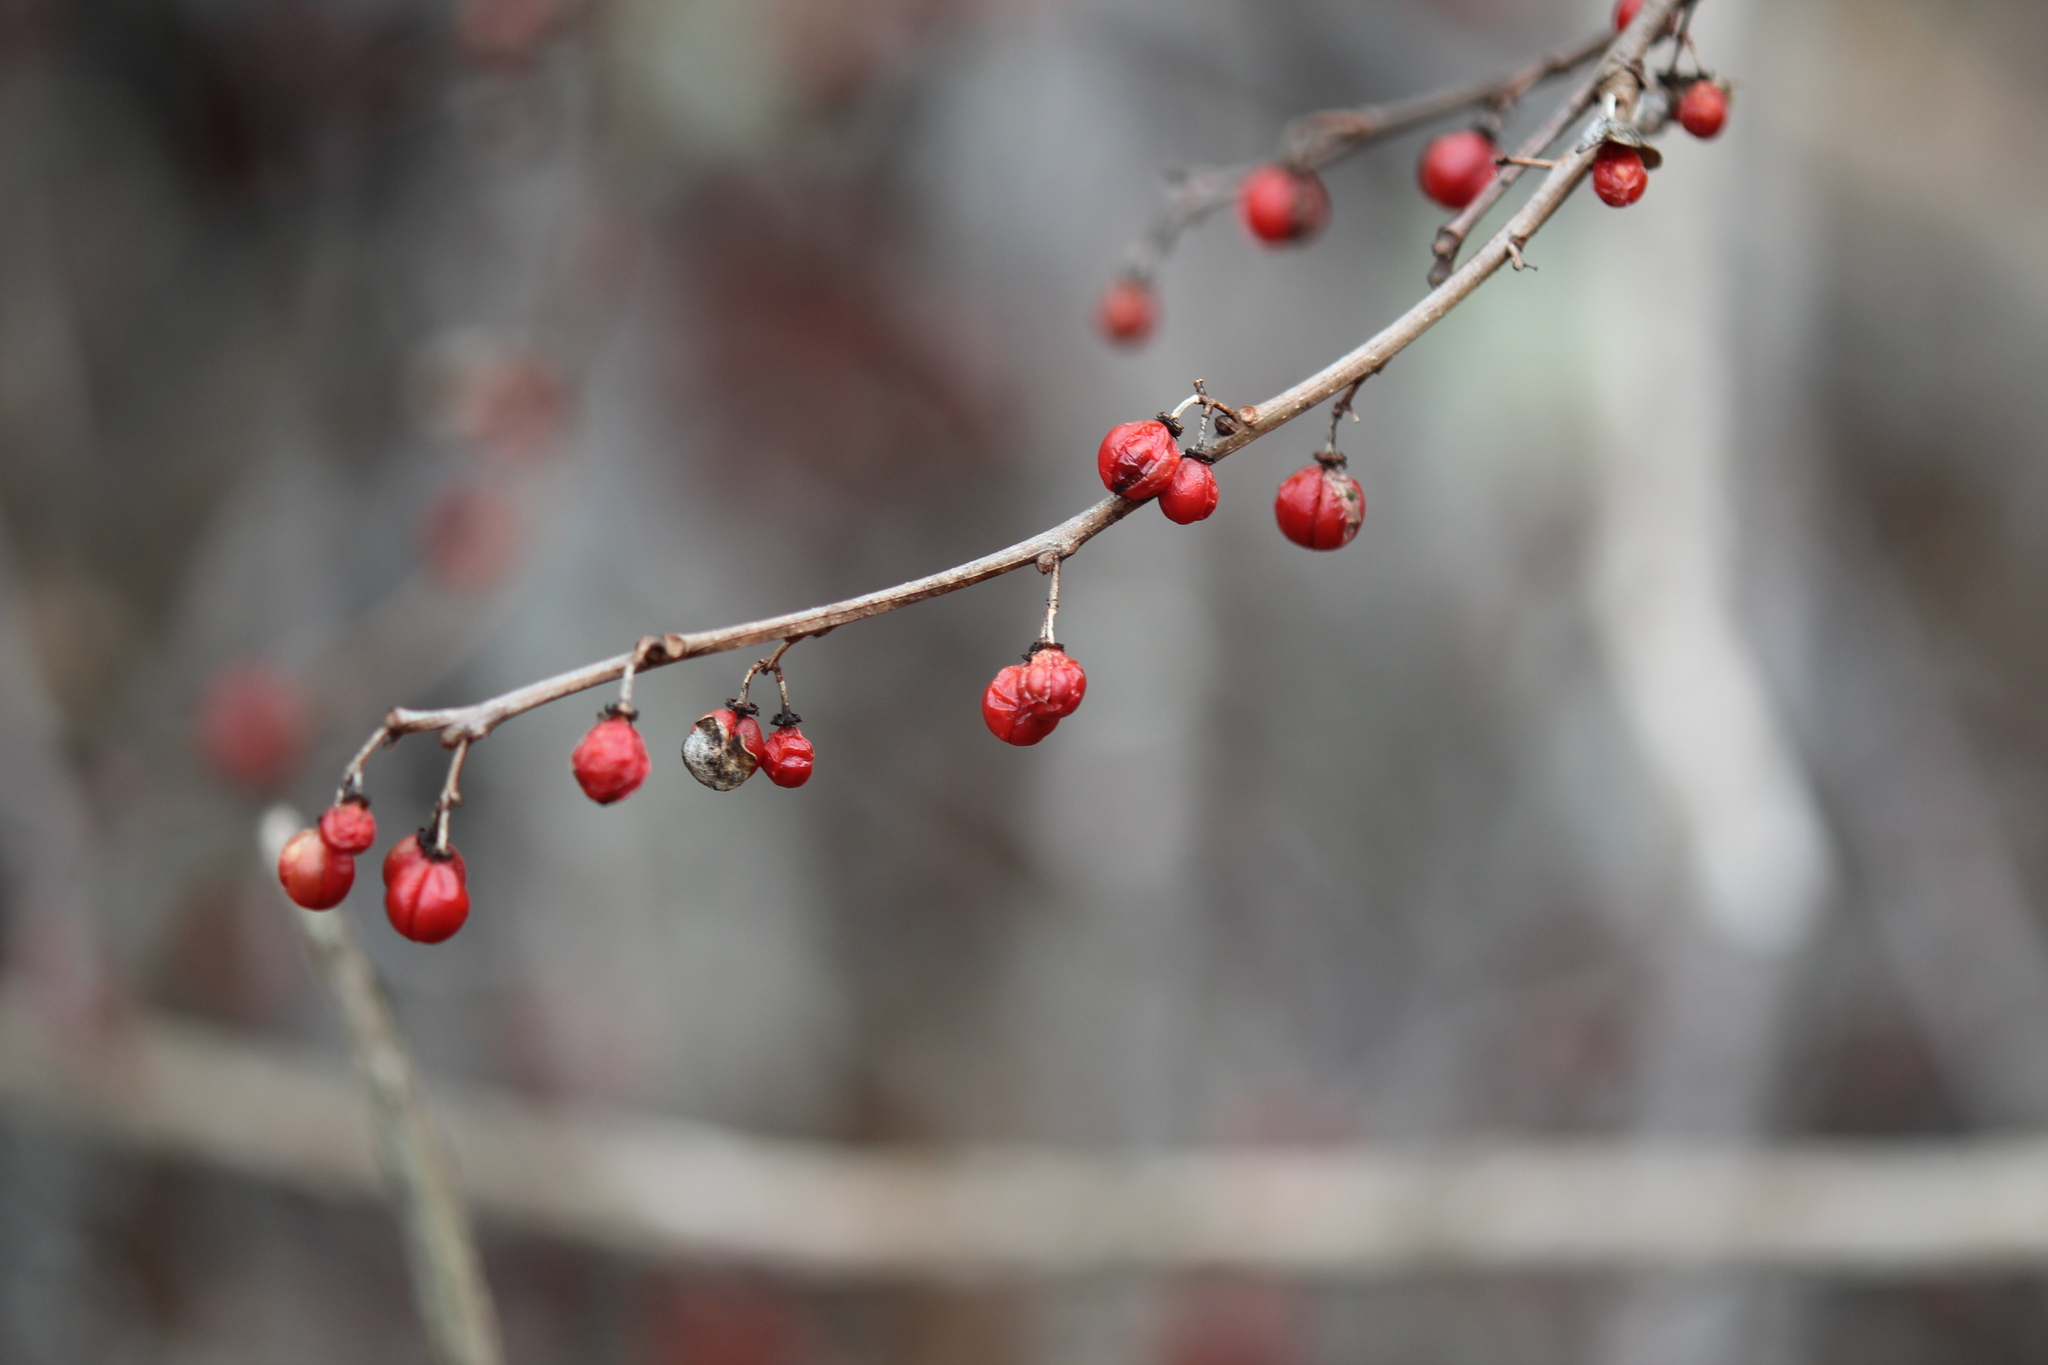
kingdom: Plantae
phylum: Tracheophyta
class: Magnoliopsida
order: Celastrales
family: Celastraceae
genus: Celastrus
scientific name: Celastrus orbiculatus
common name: Oriental bittersweet
